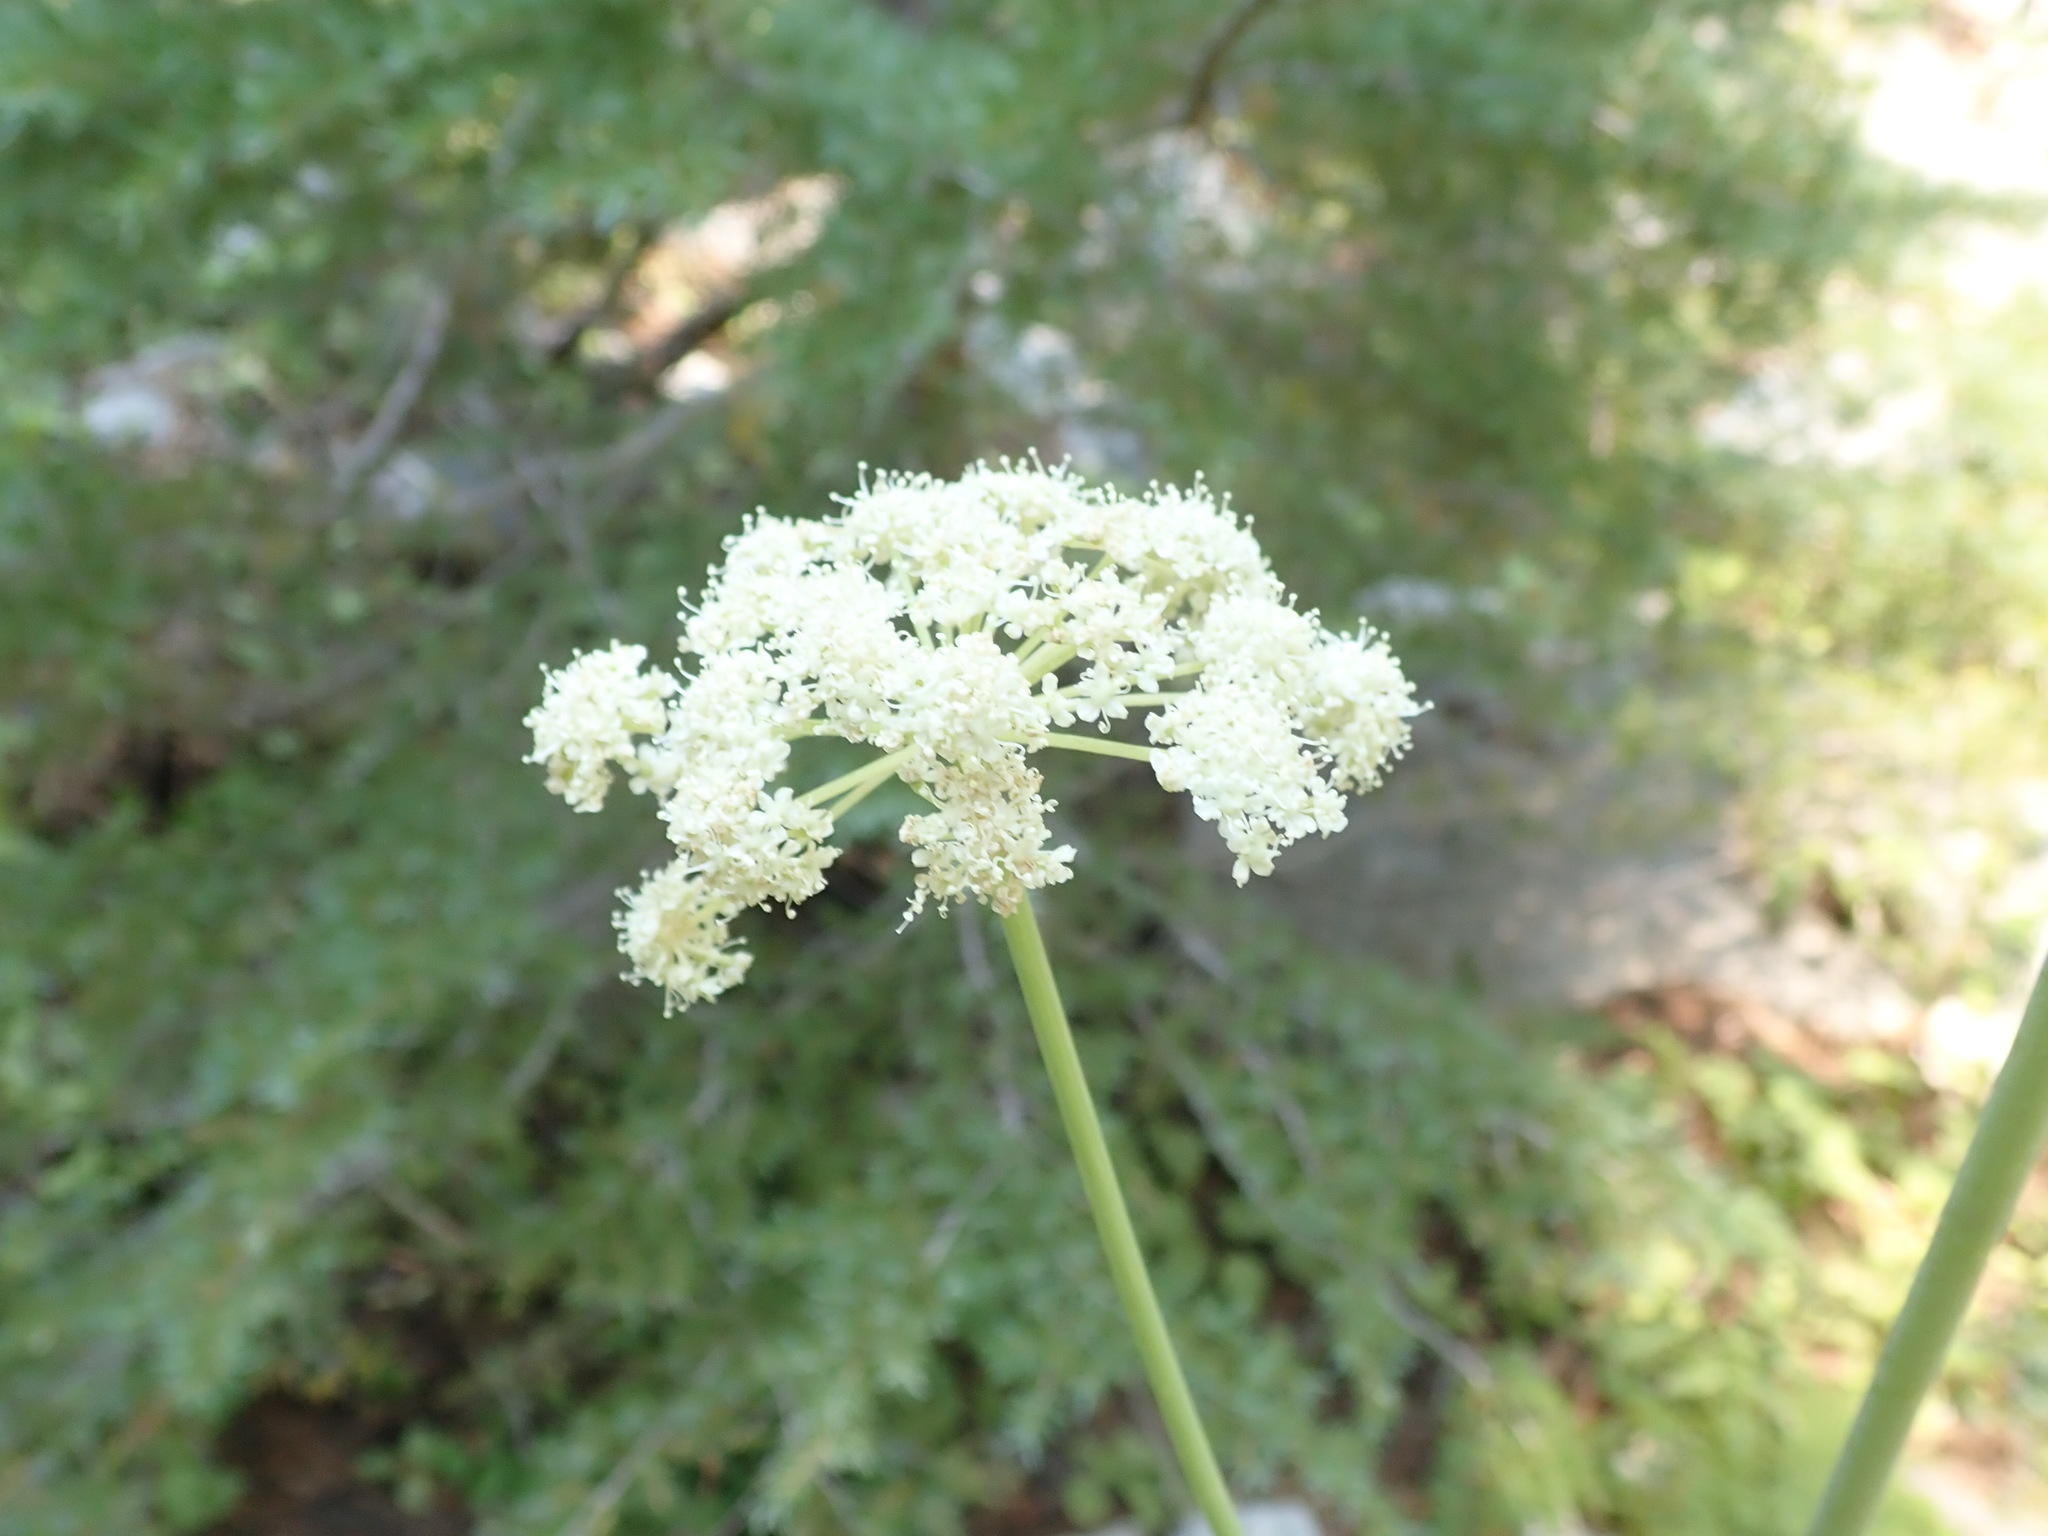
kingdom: Plantae
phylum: Tracheophyta
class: Magnoliopsida
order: Apiales
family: Apiaceae
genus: Angelica
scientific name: Angelica tomentosa
